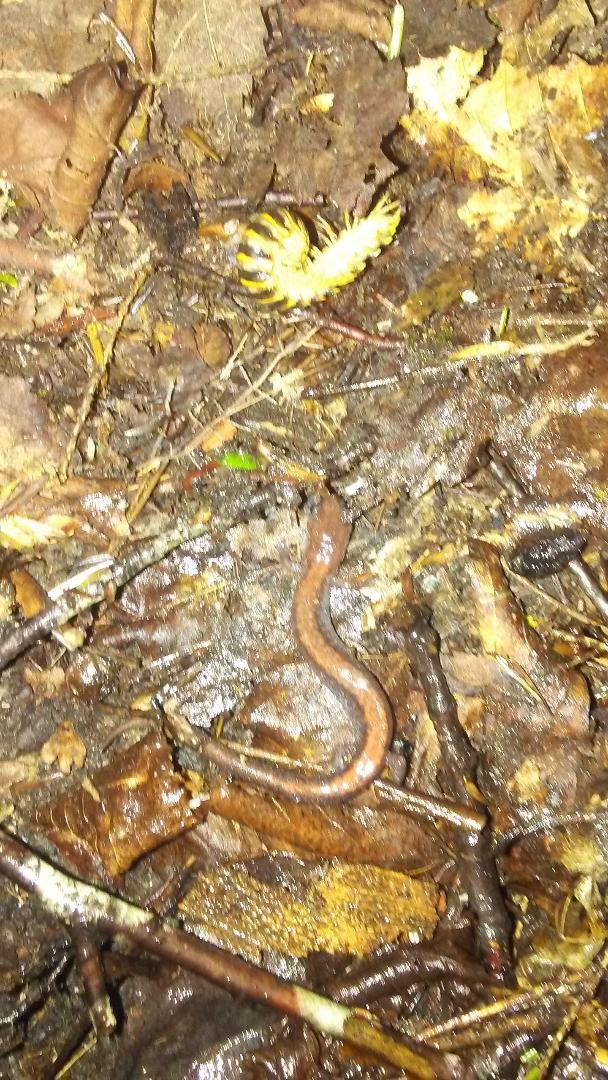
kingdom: Animalia
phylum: Arthropoda
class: Diplopoda
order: Polydesmida
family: Xystodesmidae
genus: Rudiloria
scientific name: Rudiloria trimaculata
